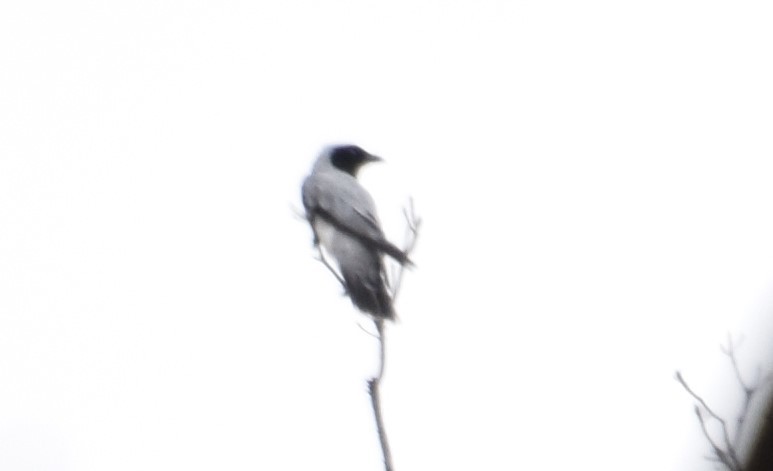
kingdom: Animalia
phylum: Chordata
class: Aves
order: Passeriformes
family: Campephagidae
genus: Coracina
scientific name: Coracina novaehollandiae
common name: Black-faced cuckooshrike
